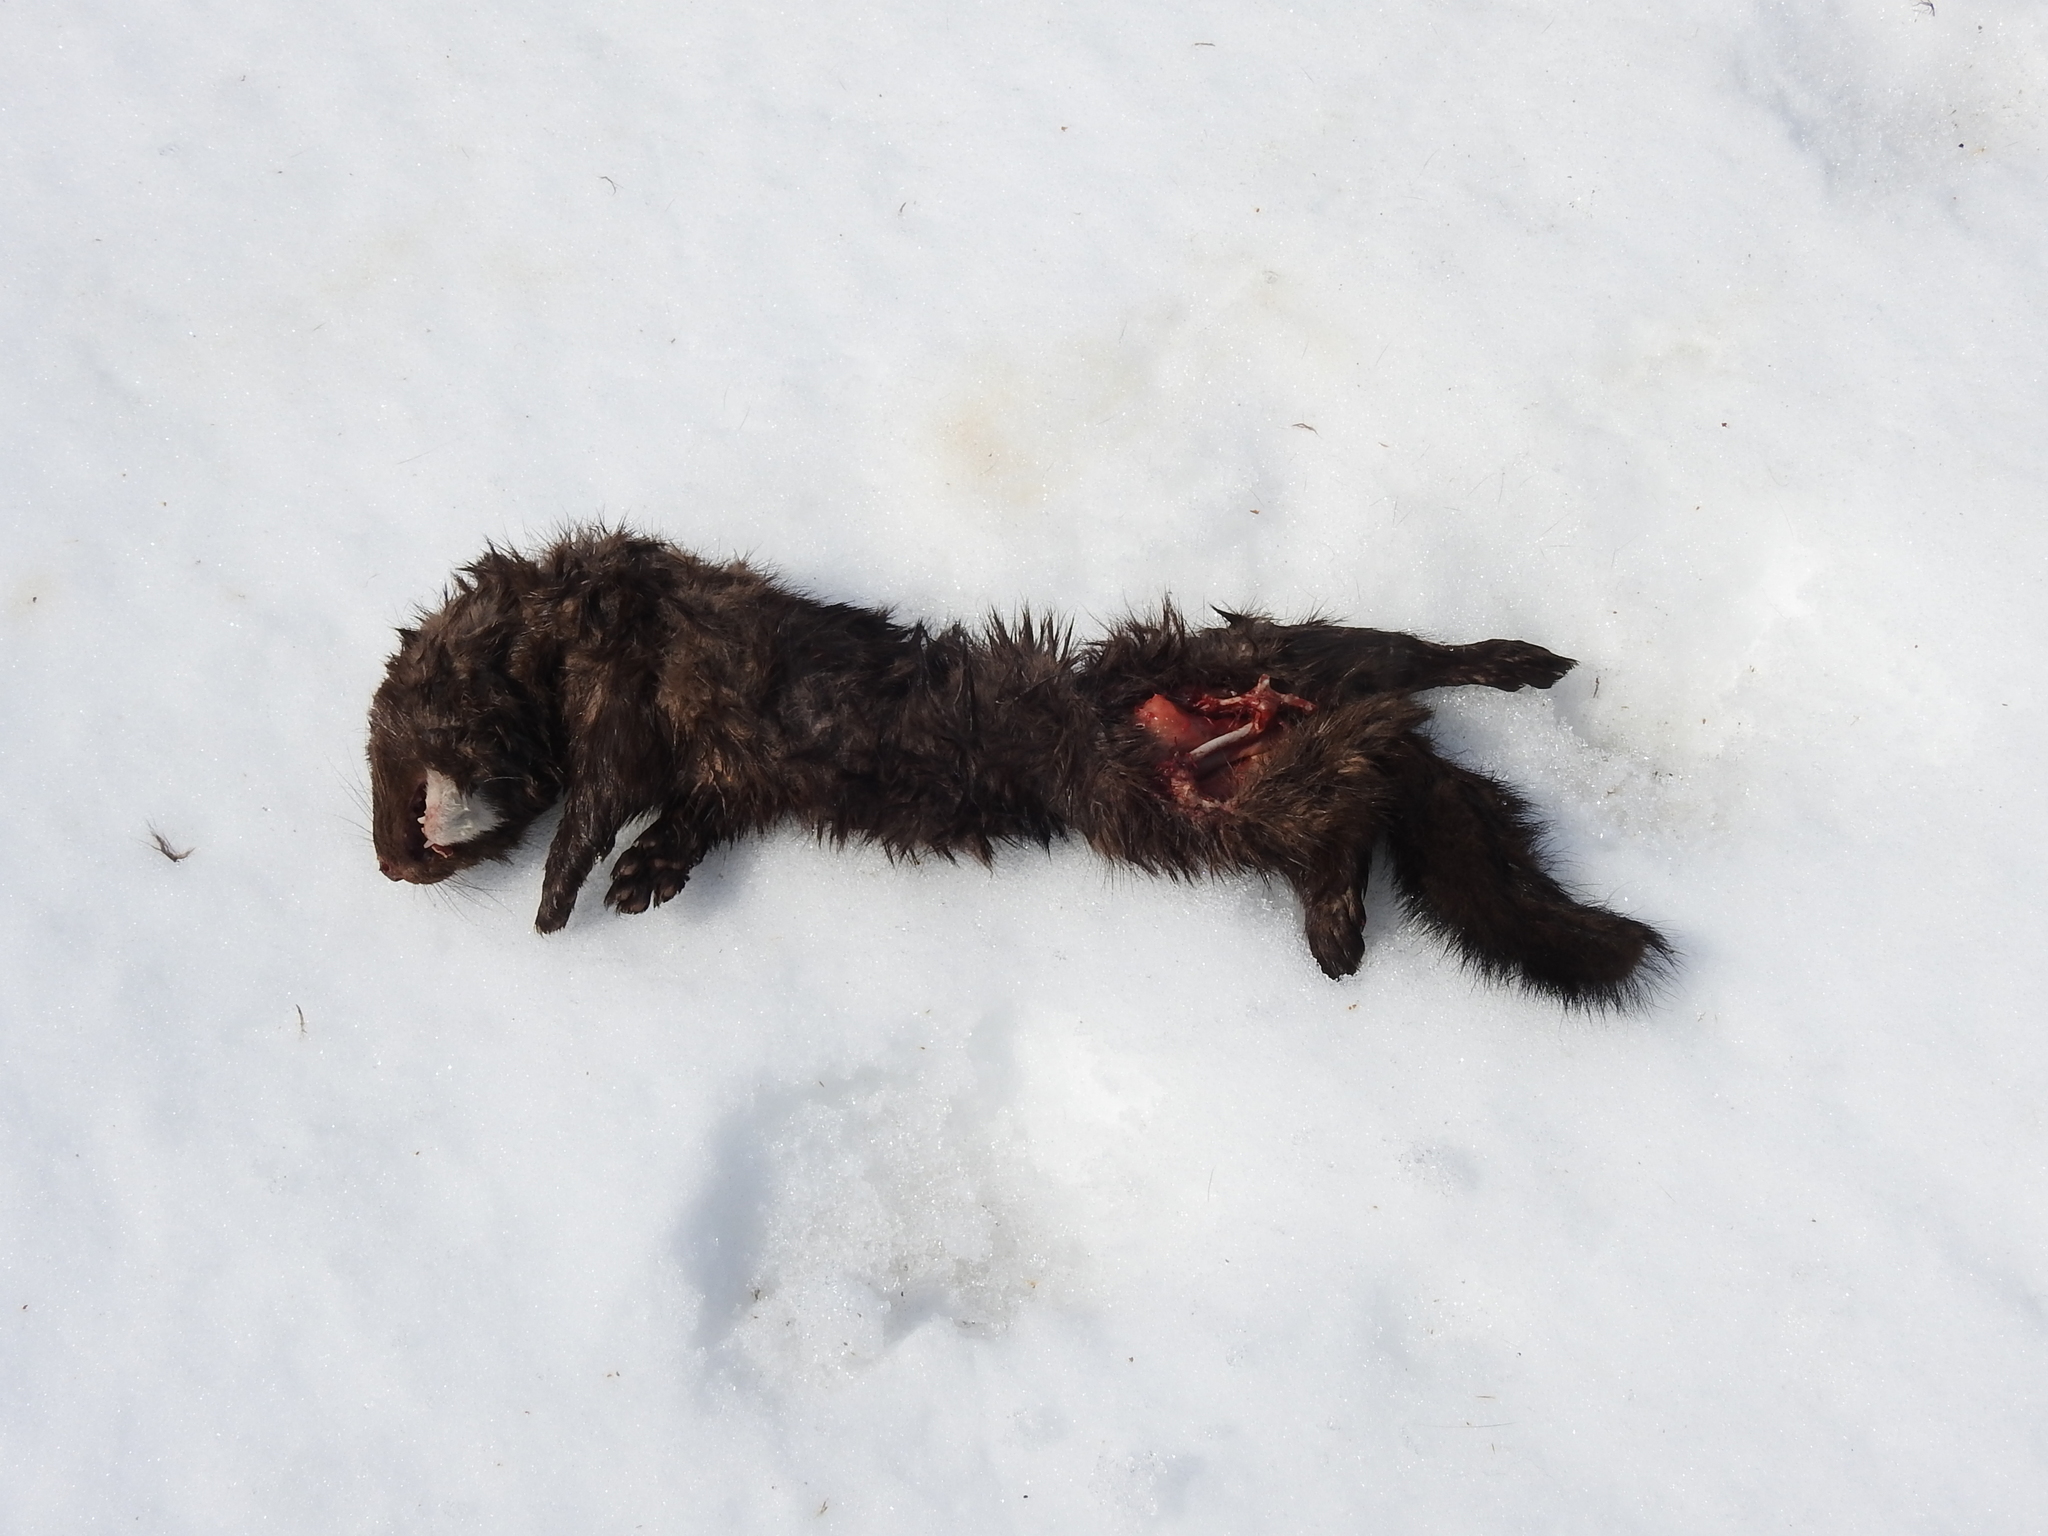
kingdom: Animalia
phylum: Chordata
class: Mammalia
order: Carnivora
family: Mustelidae
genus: Mustela
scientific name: Mustela
